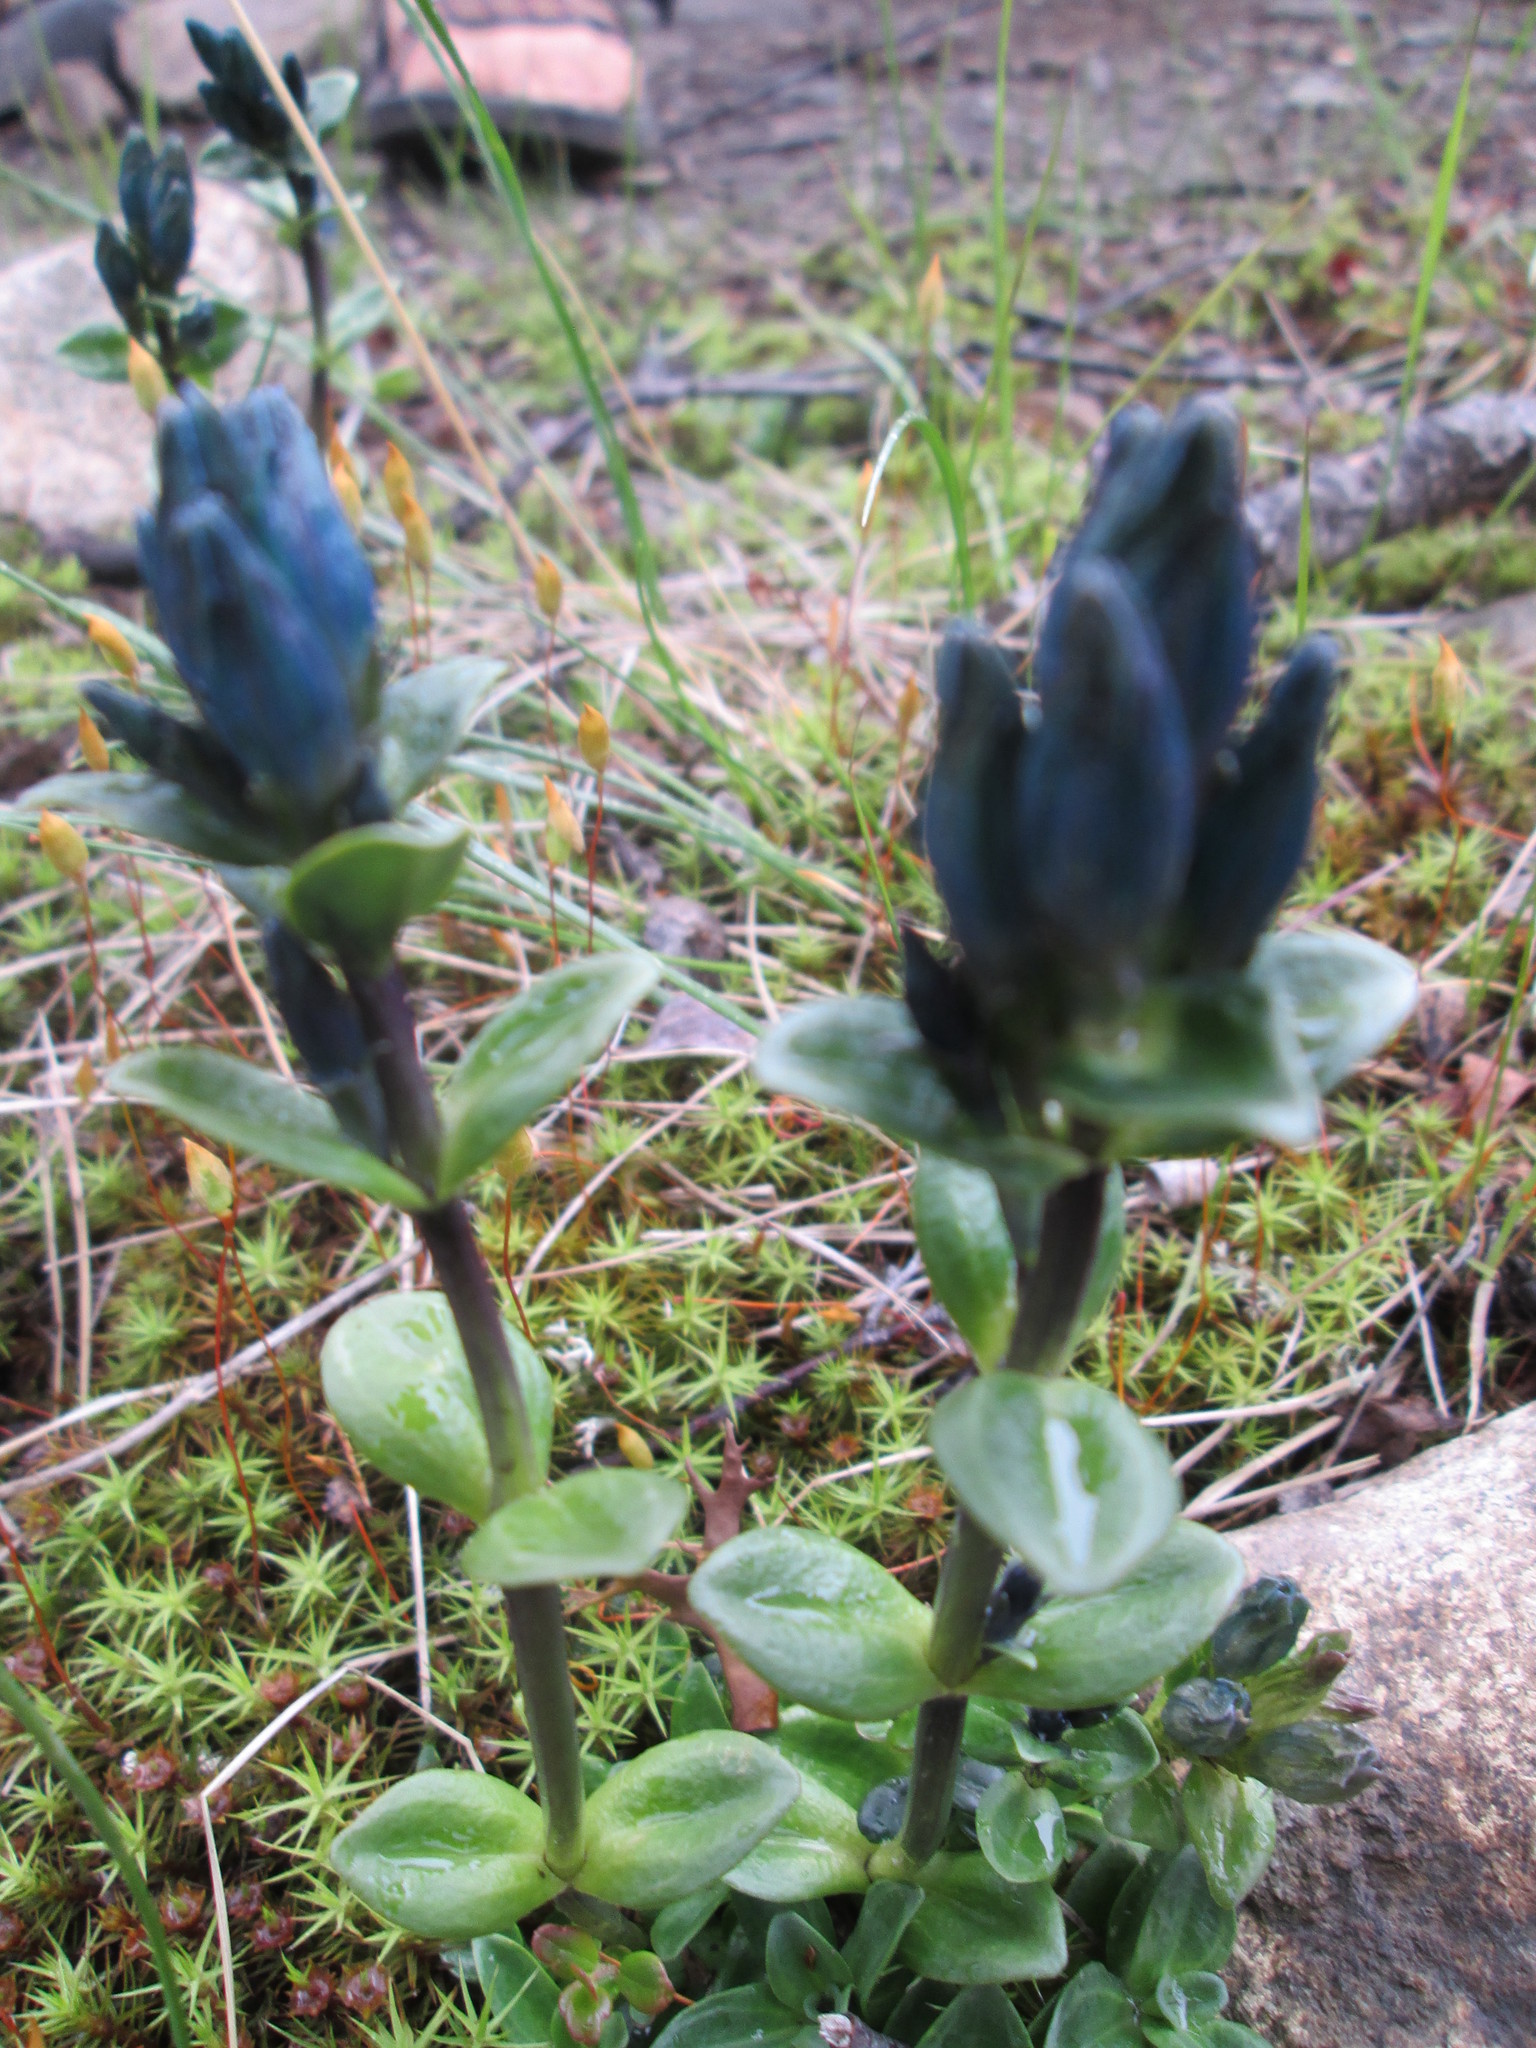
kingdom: Plantae
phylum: Tracheophyta
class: Magnoliopsida
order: Gentianales
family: Gentianaceae
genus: Gentiana
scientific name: Gentiana glauca
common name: Alpine gentian
